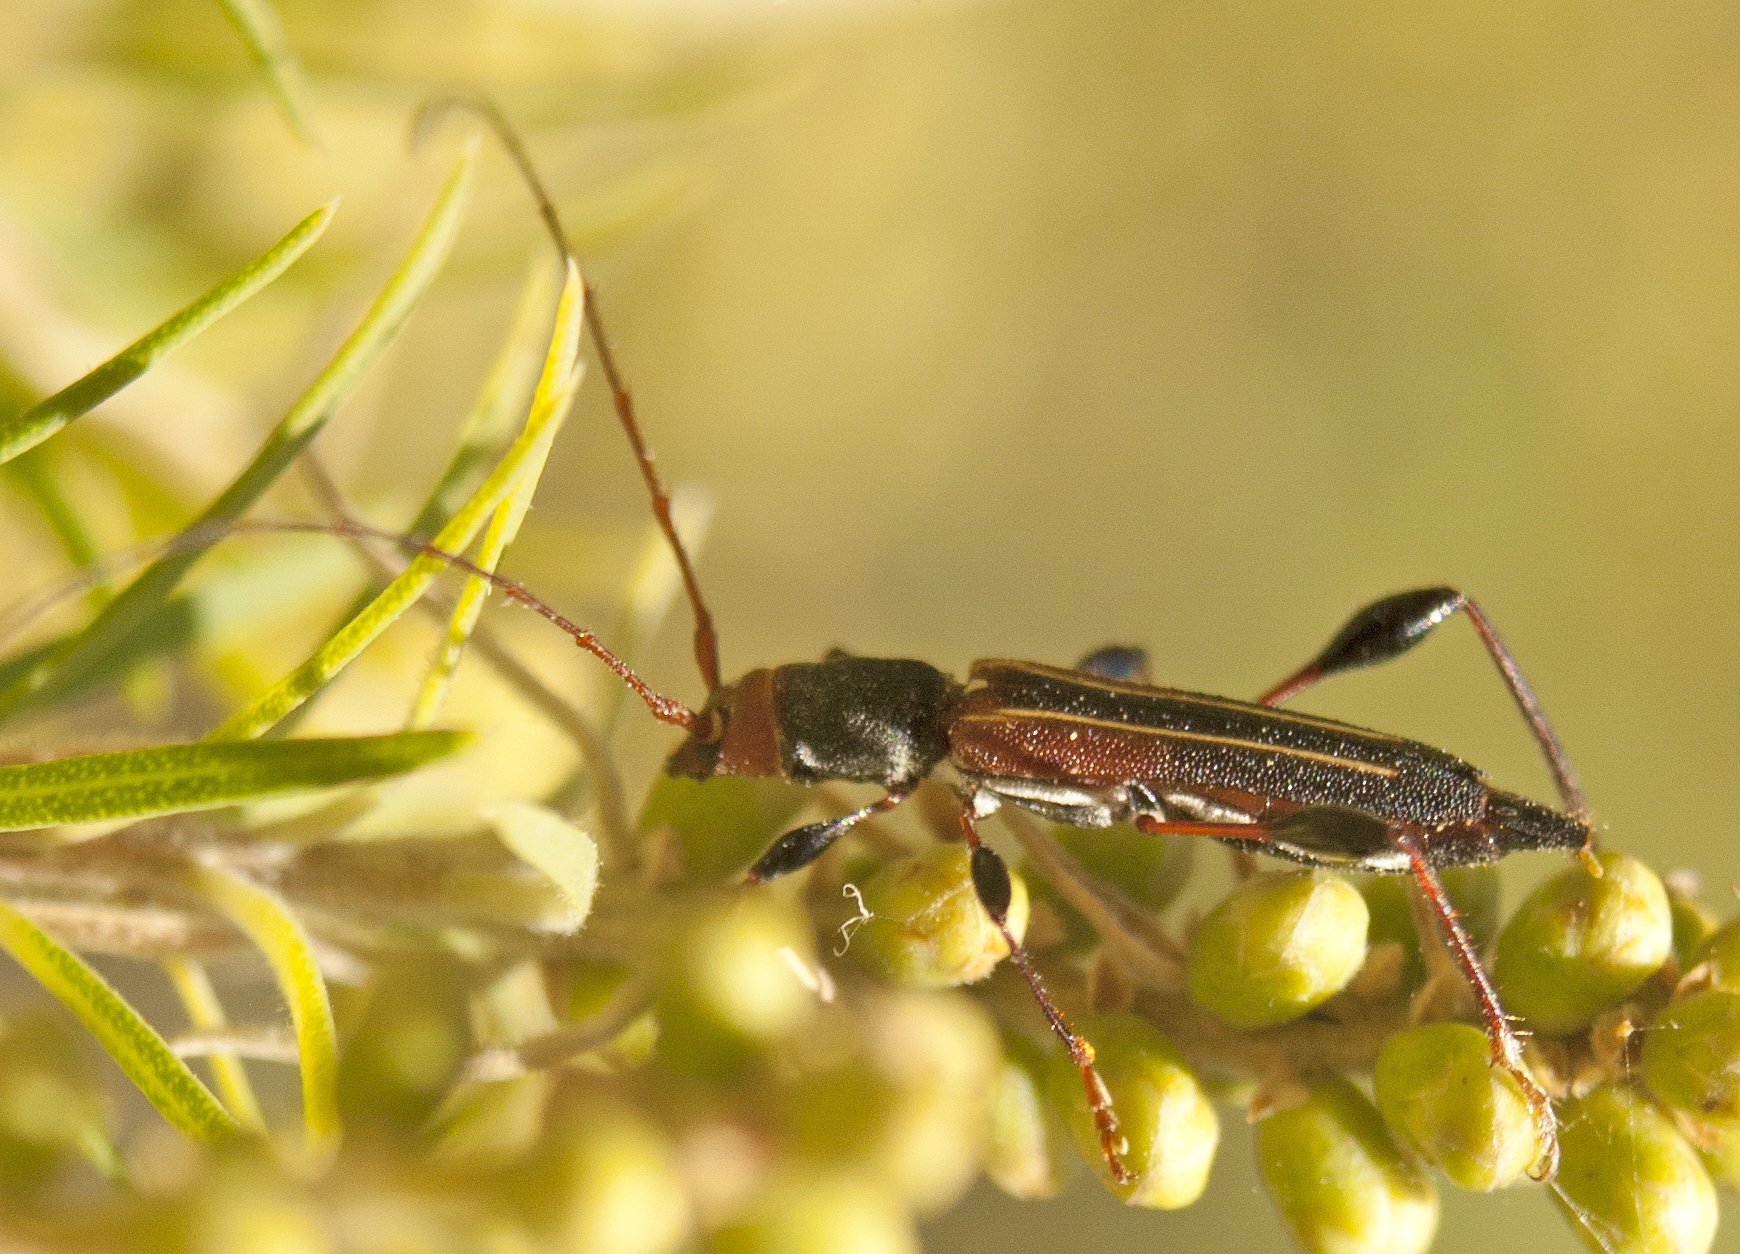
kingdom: Animalia
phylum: Arthropoda
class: Insecta
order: Coleoptera
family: Cerambycidae
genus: Amphirhoe
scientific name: Amphirhoe sloanei
